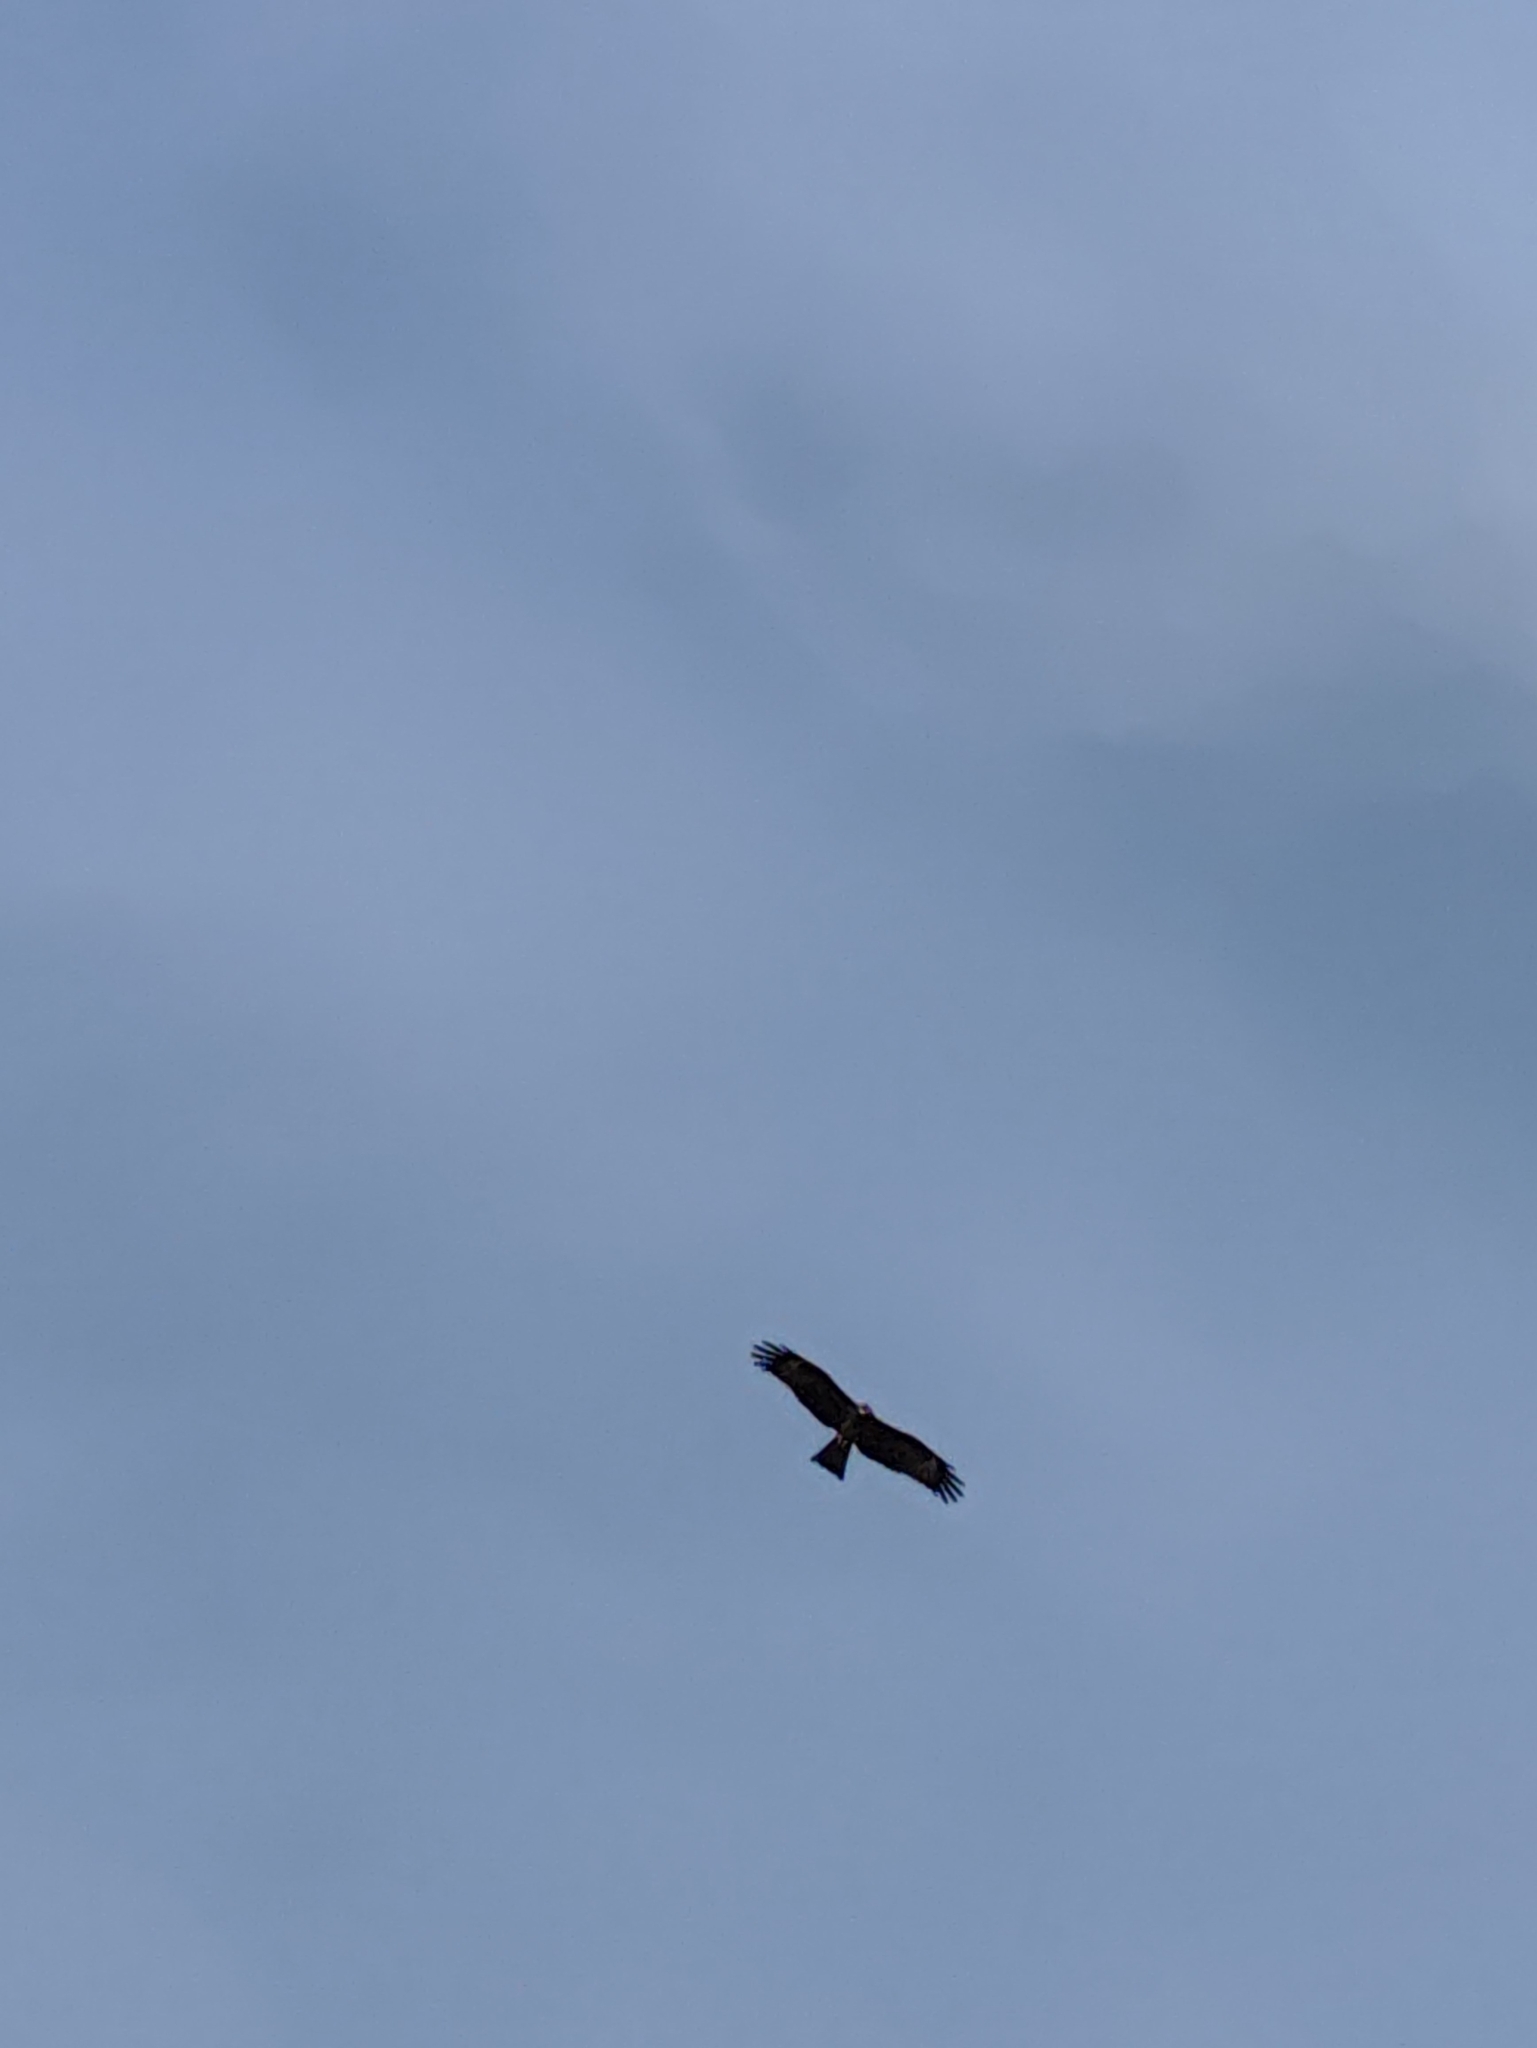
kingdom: Animalia
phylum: Chordata
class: Aves
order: Accipitriformes
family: Accipitridae
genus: Milvus
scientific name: Milvus migrans
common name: Black kite
